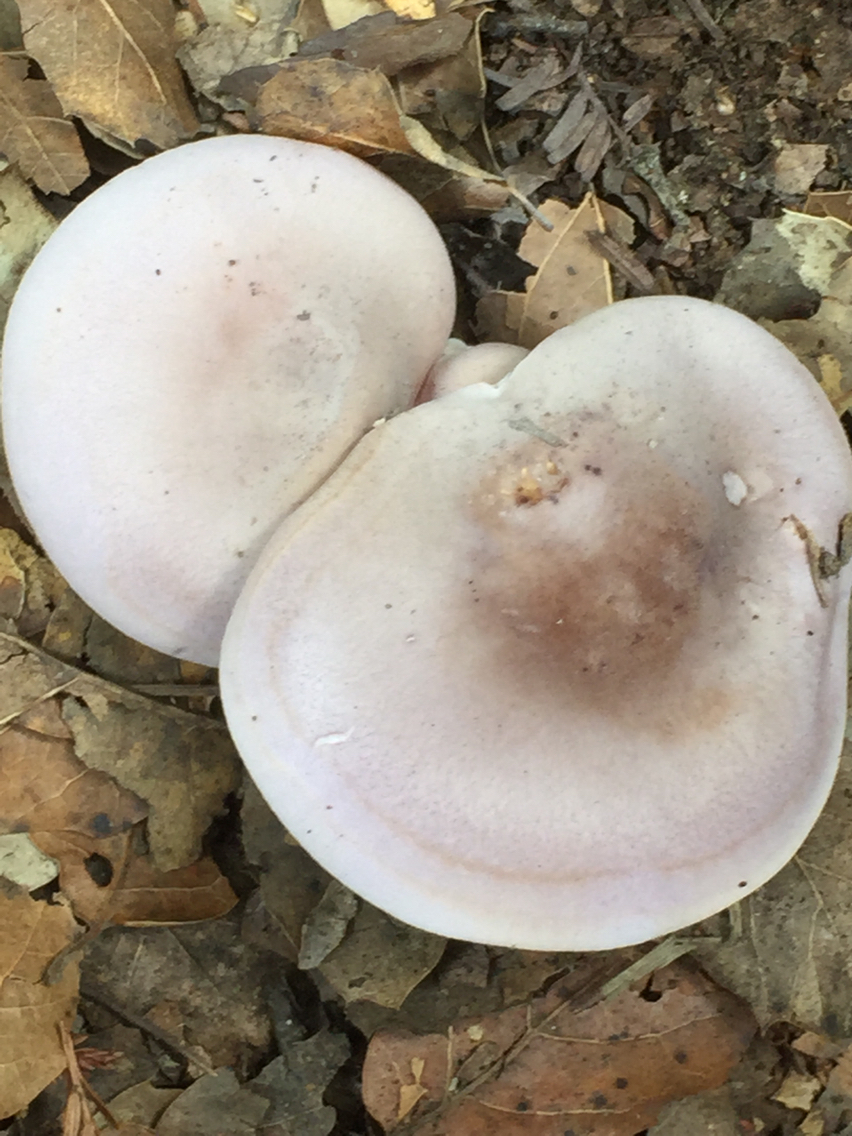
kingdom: Fungi
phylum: Basidiomycota
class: Agaricomycetes
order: Agaricales
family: Tricholomataceae
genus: Collybia
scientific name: Collybia
